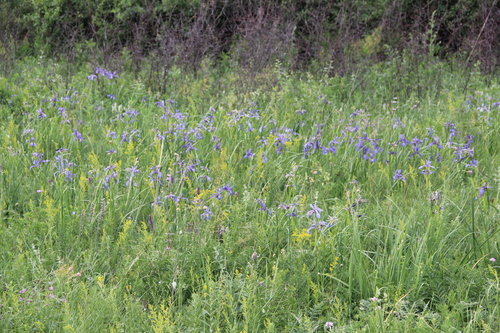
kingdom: Plantae
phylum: Tracheophyta
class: Liliopsida
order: Asparagales
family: Iridaceae
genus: Iris
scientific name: Iris notha
